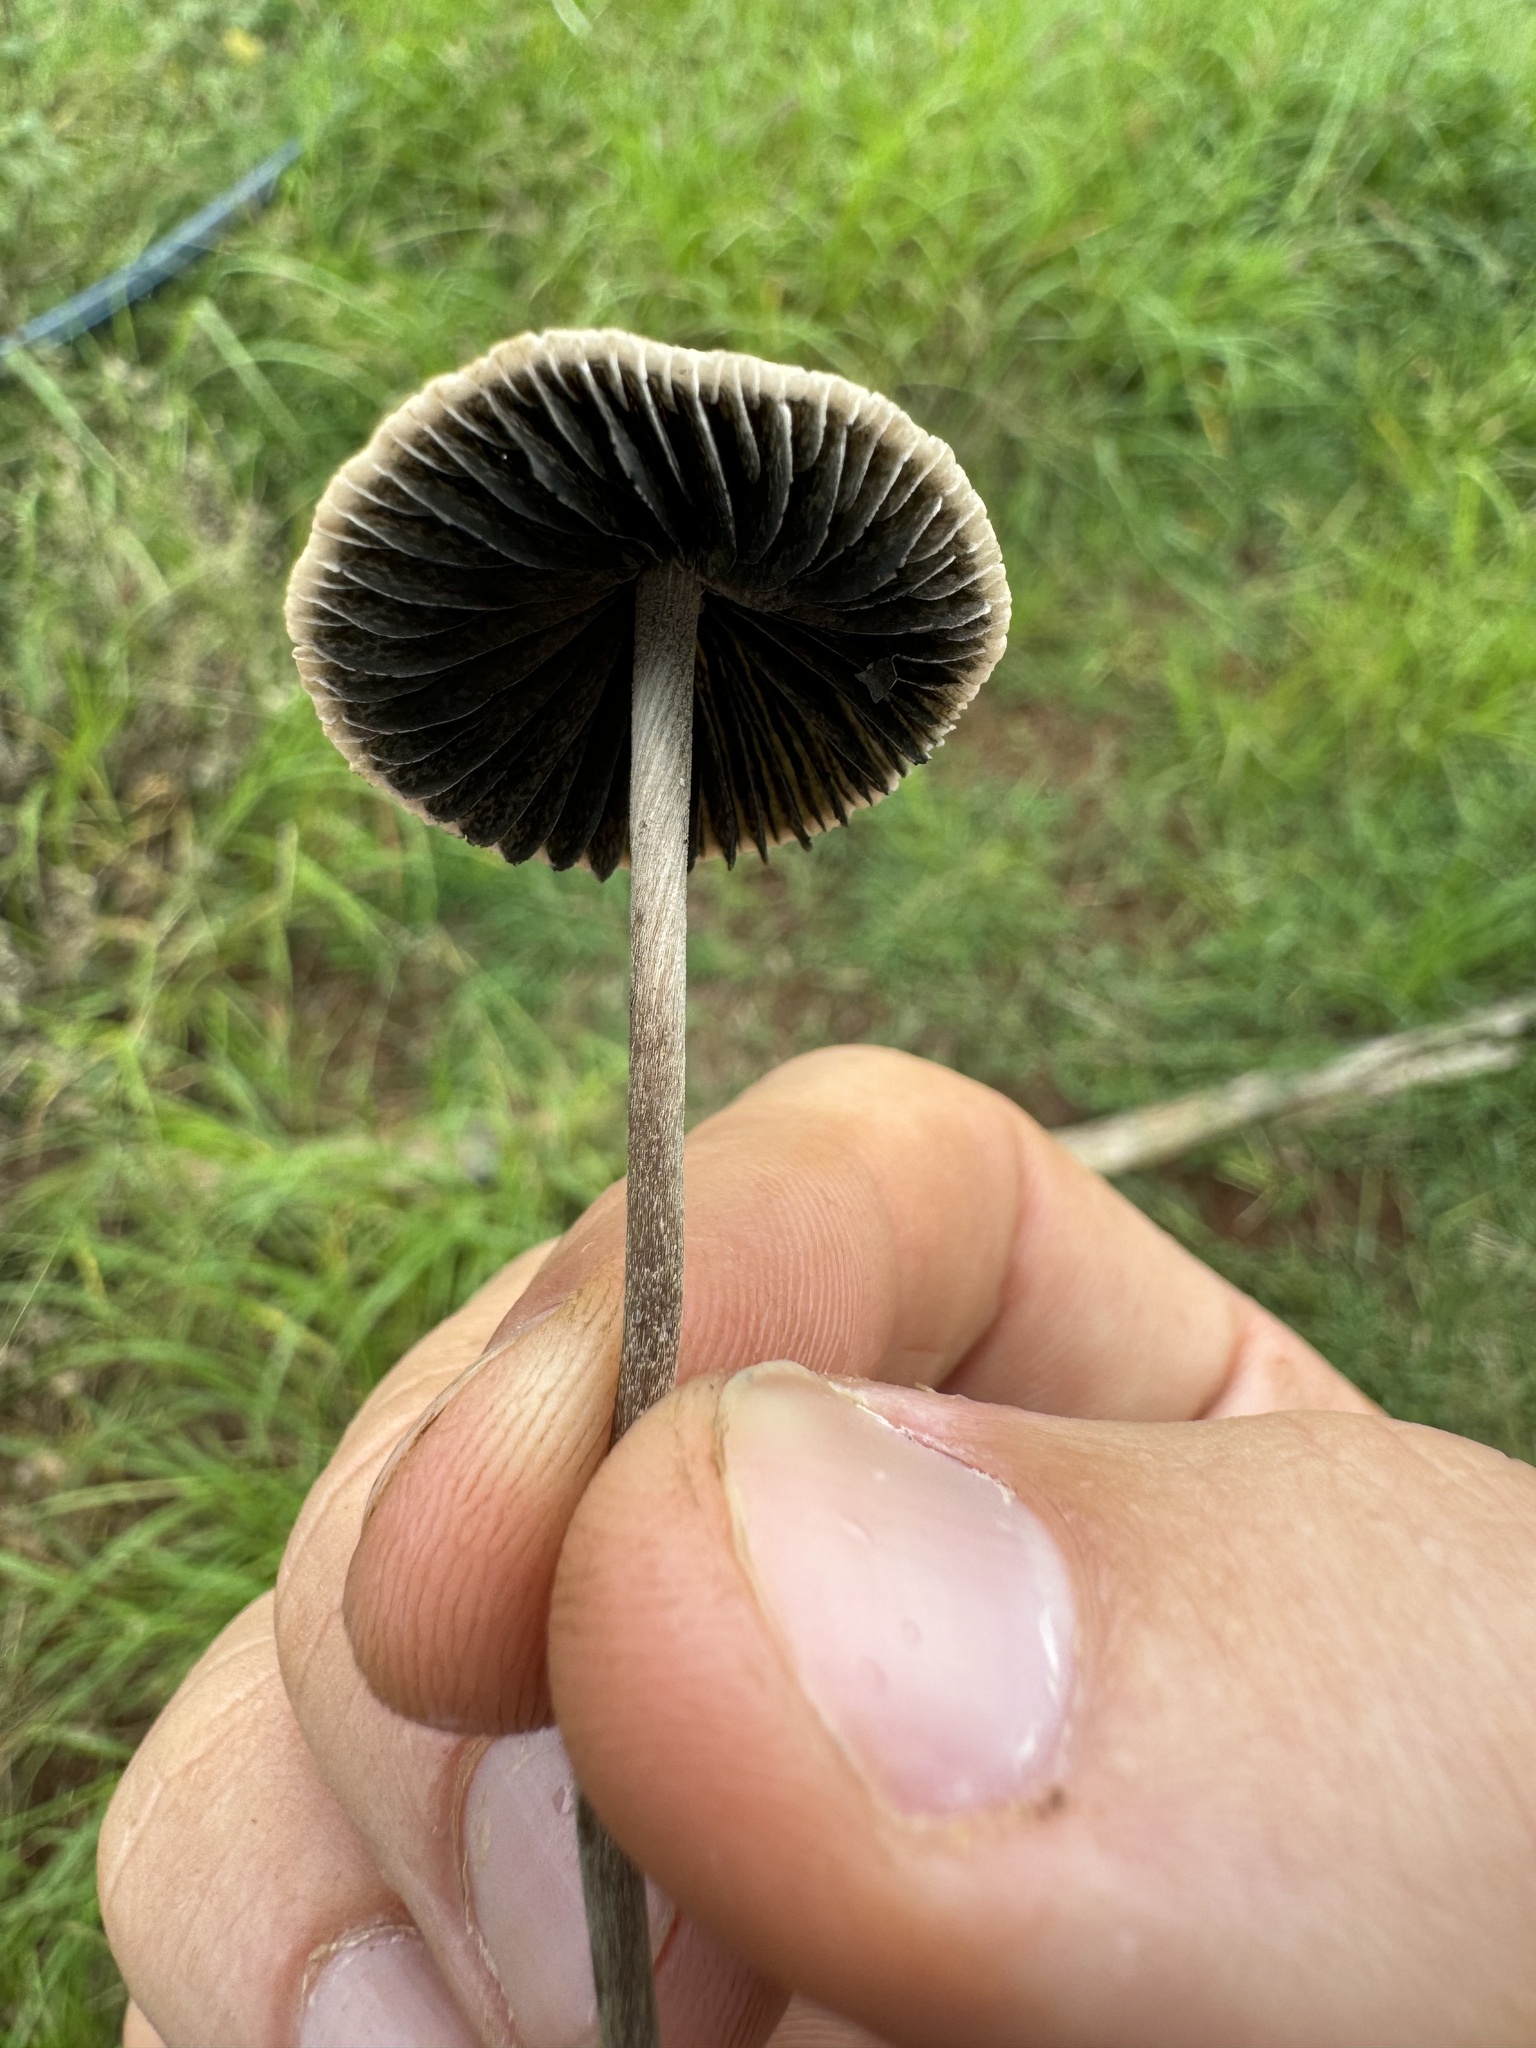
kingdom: Fungi
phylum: Basidiomycota
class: Agaricomycetes
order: Agaricales
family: Bolbitiaceae
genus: Panaeolus
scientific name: Panaeolus cyanescens
